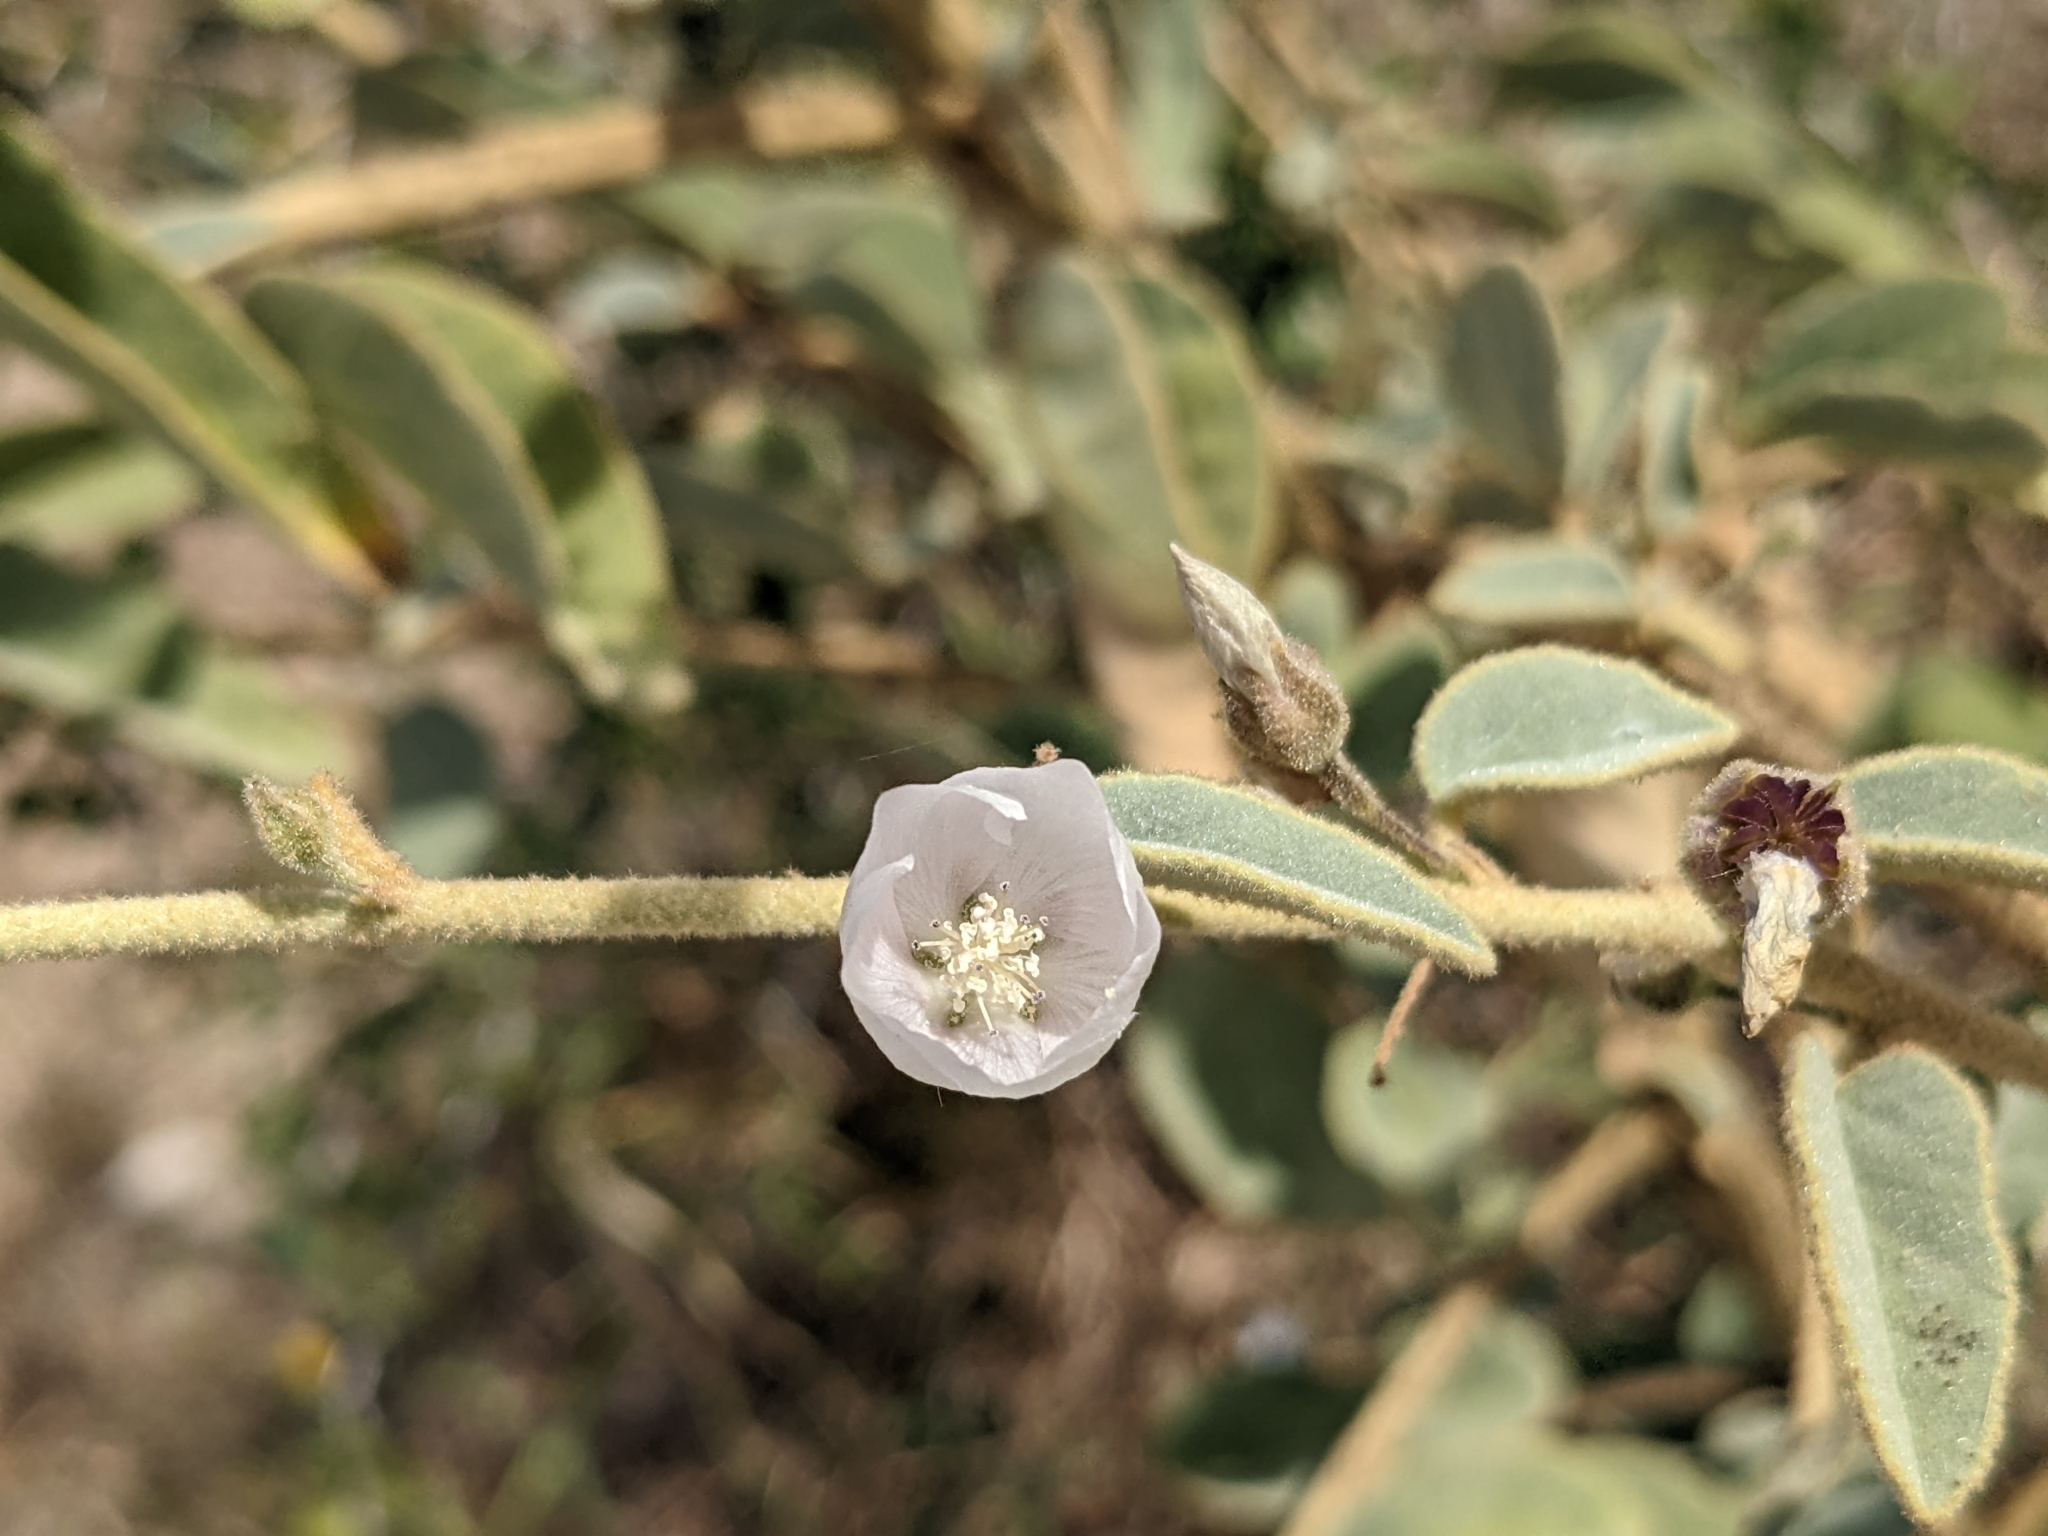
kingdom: Plantae
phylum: Tracheophyta
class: Magnoliopsida
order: Malvales
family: Malvaceae
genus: Horsfordia
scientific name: Horsfordia alata
